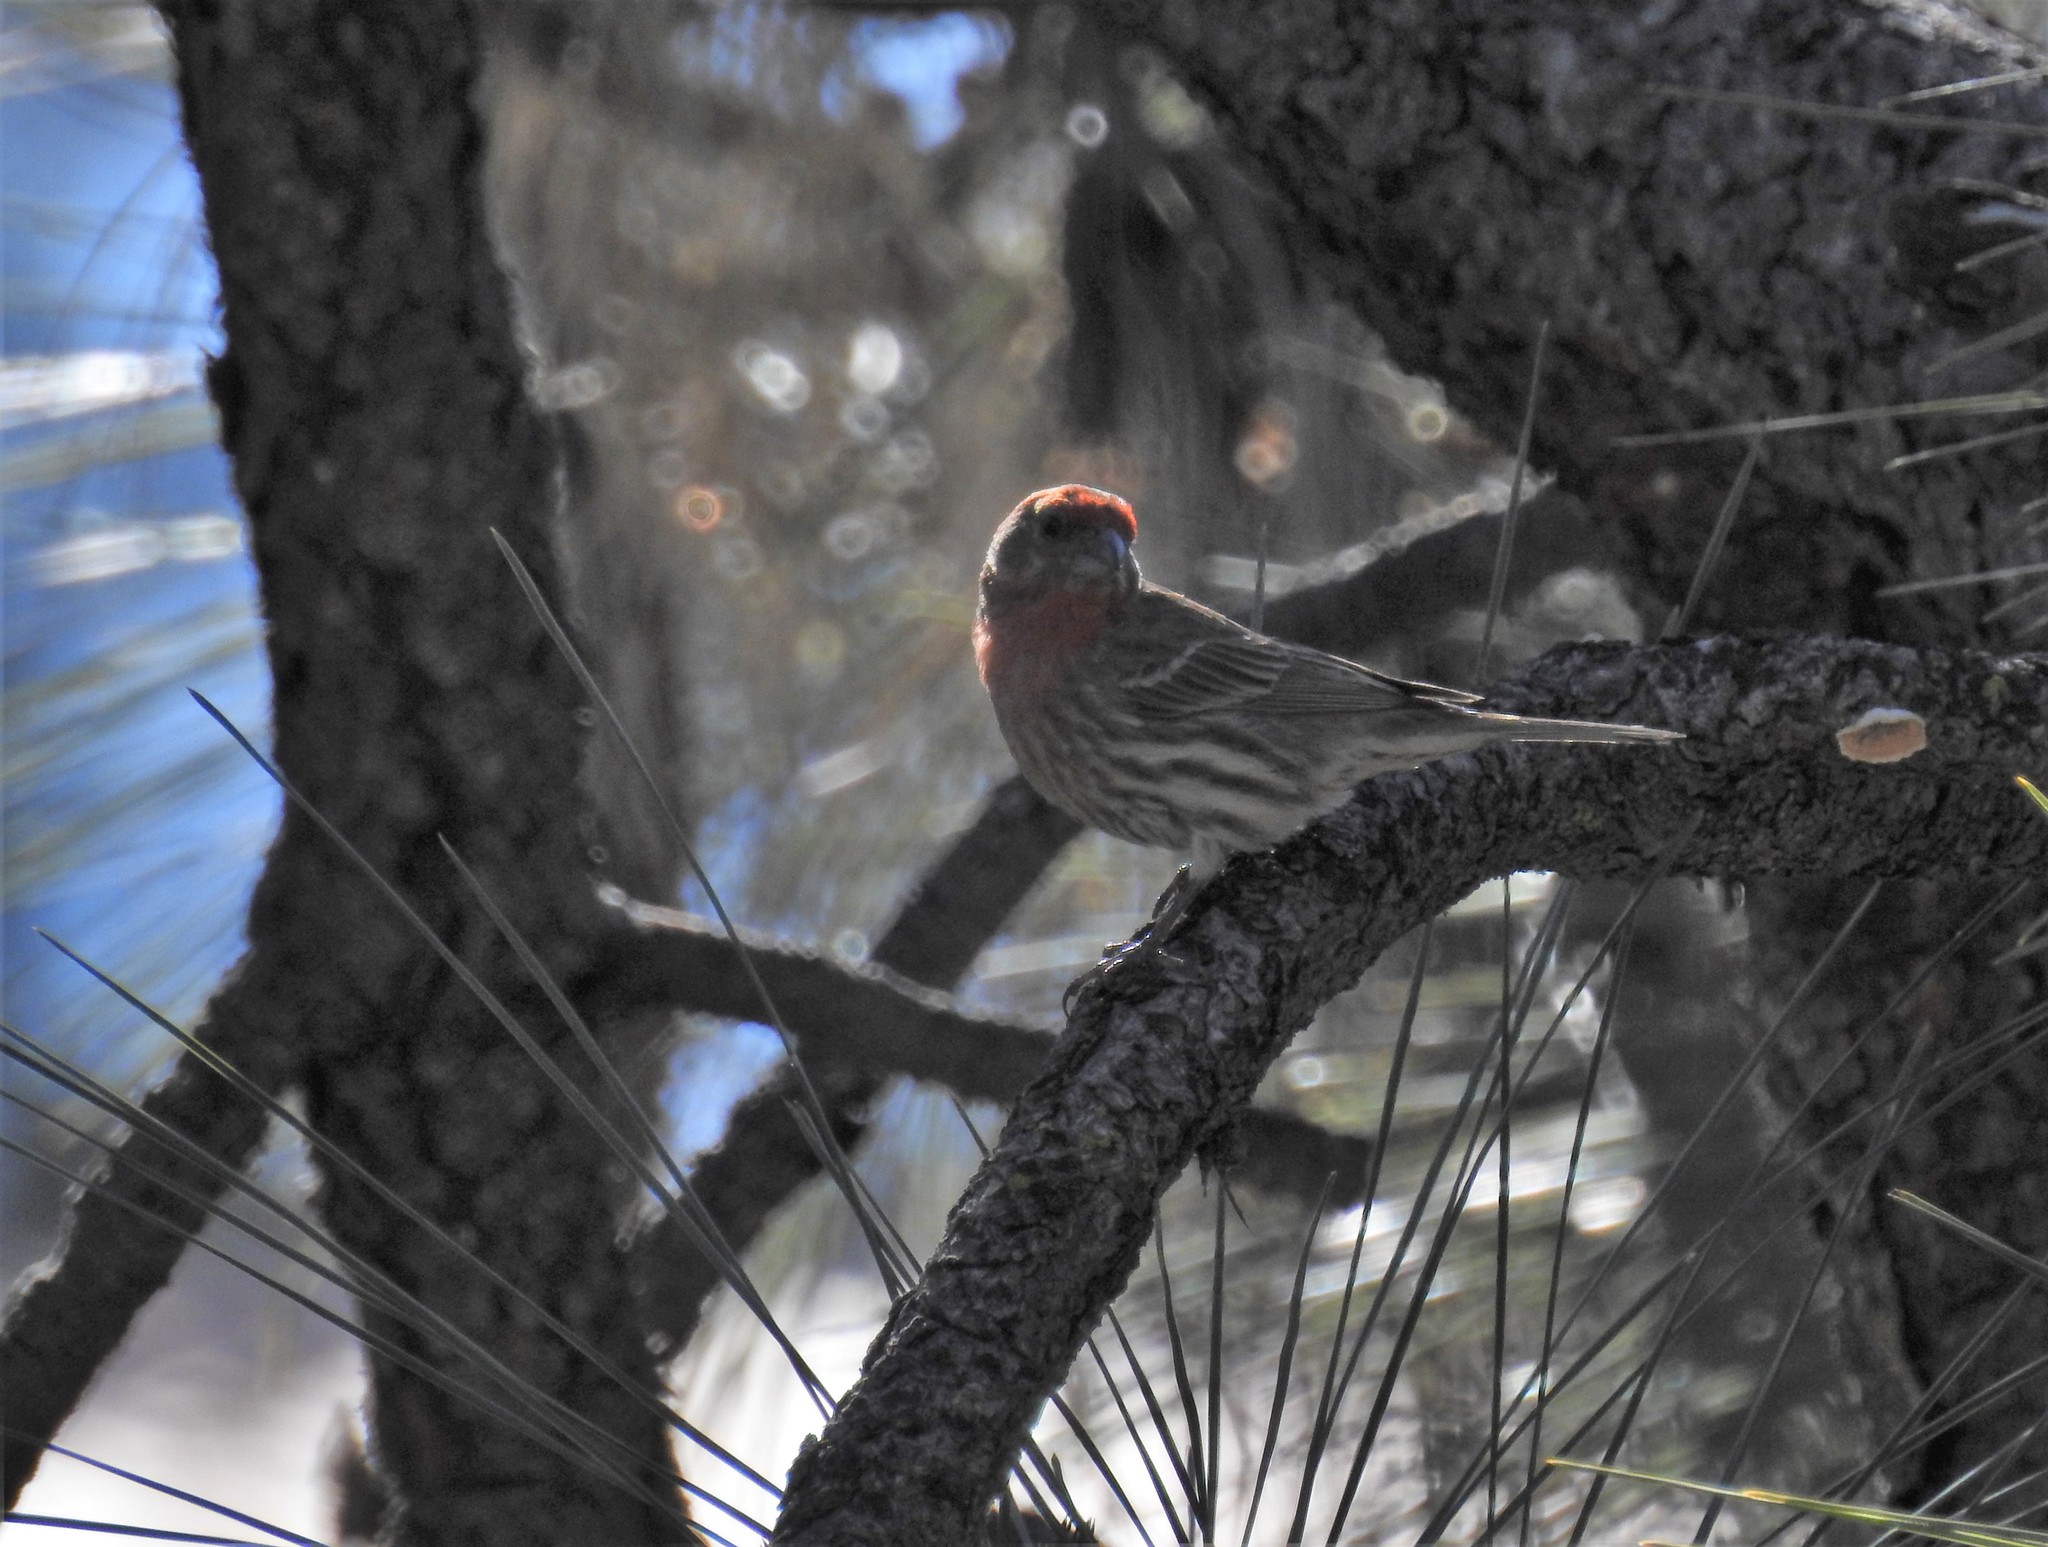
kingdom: Animalia
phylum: Chordata
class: Aves
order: Passeriformes
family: Fringillidae
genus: Haemorhous
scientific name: Haemorhous mexicanus
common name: House finch
